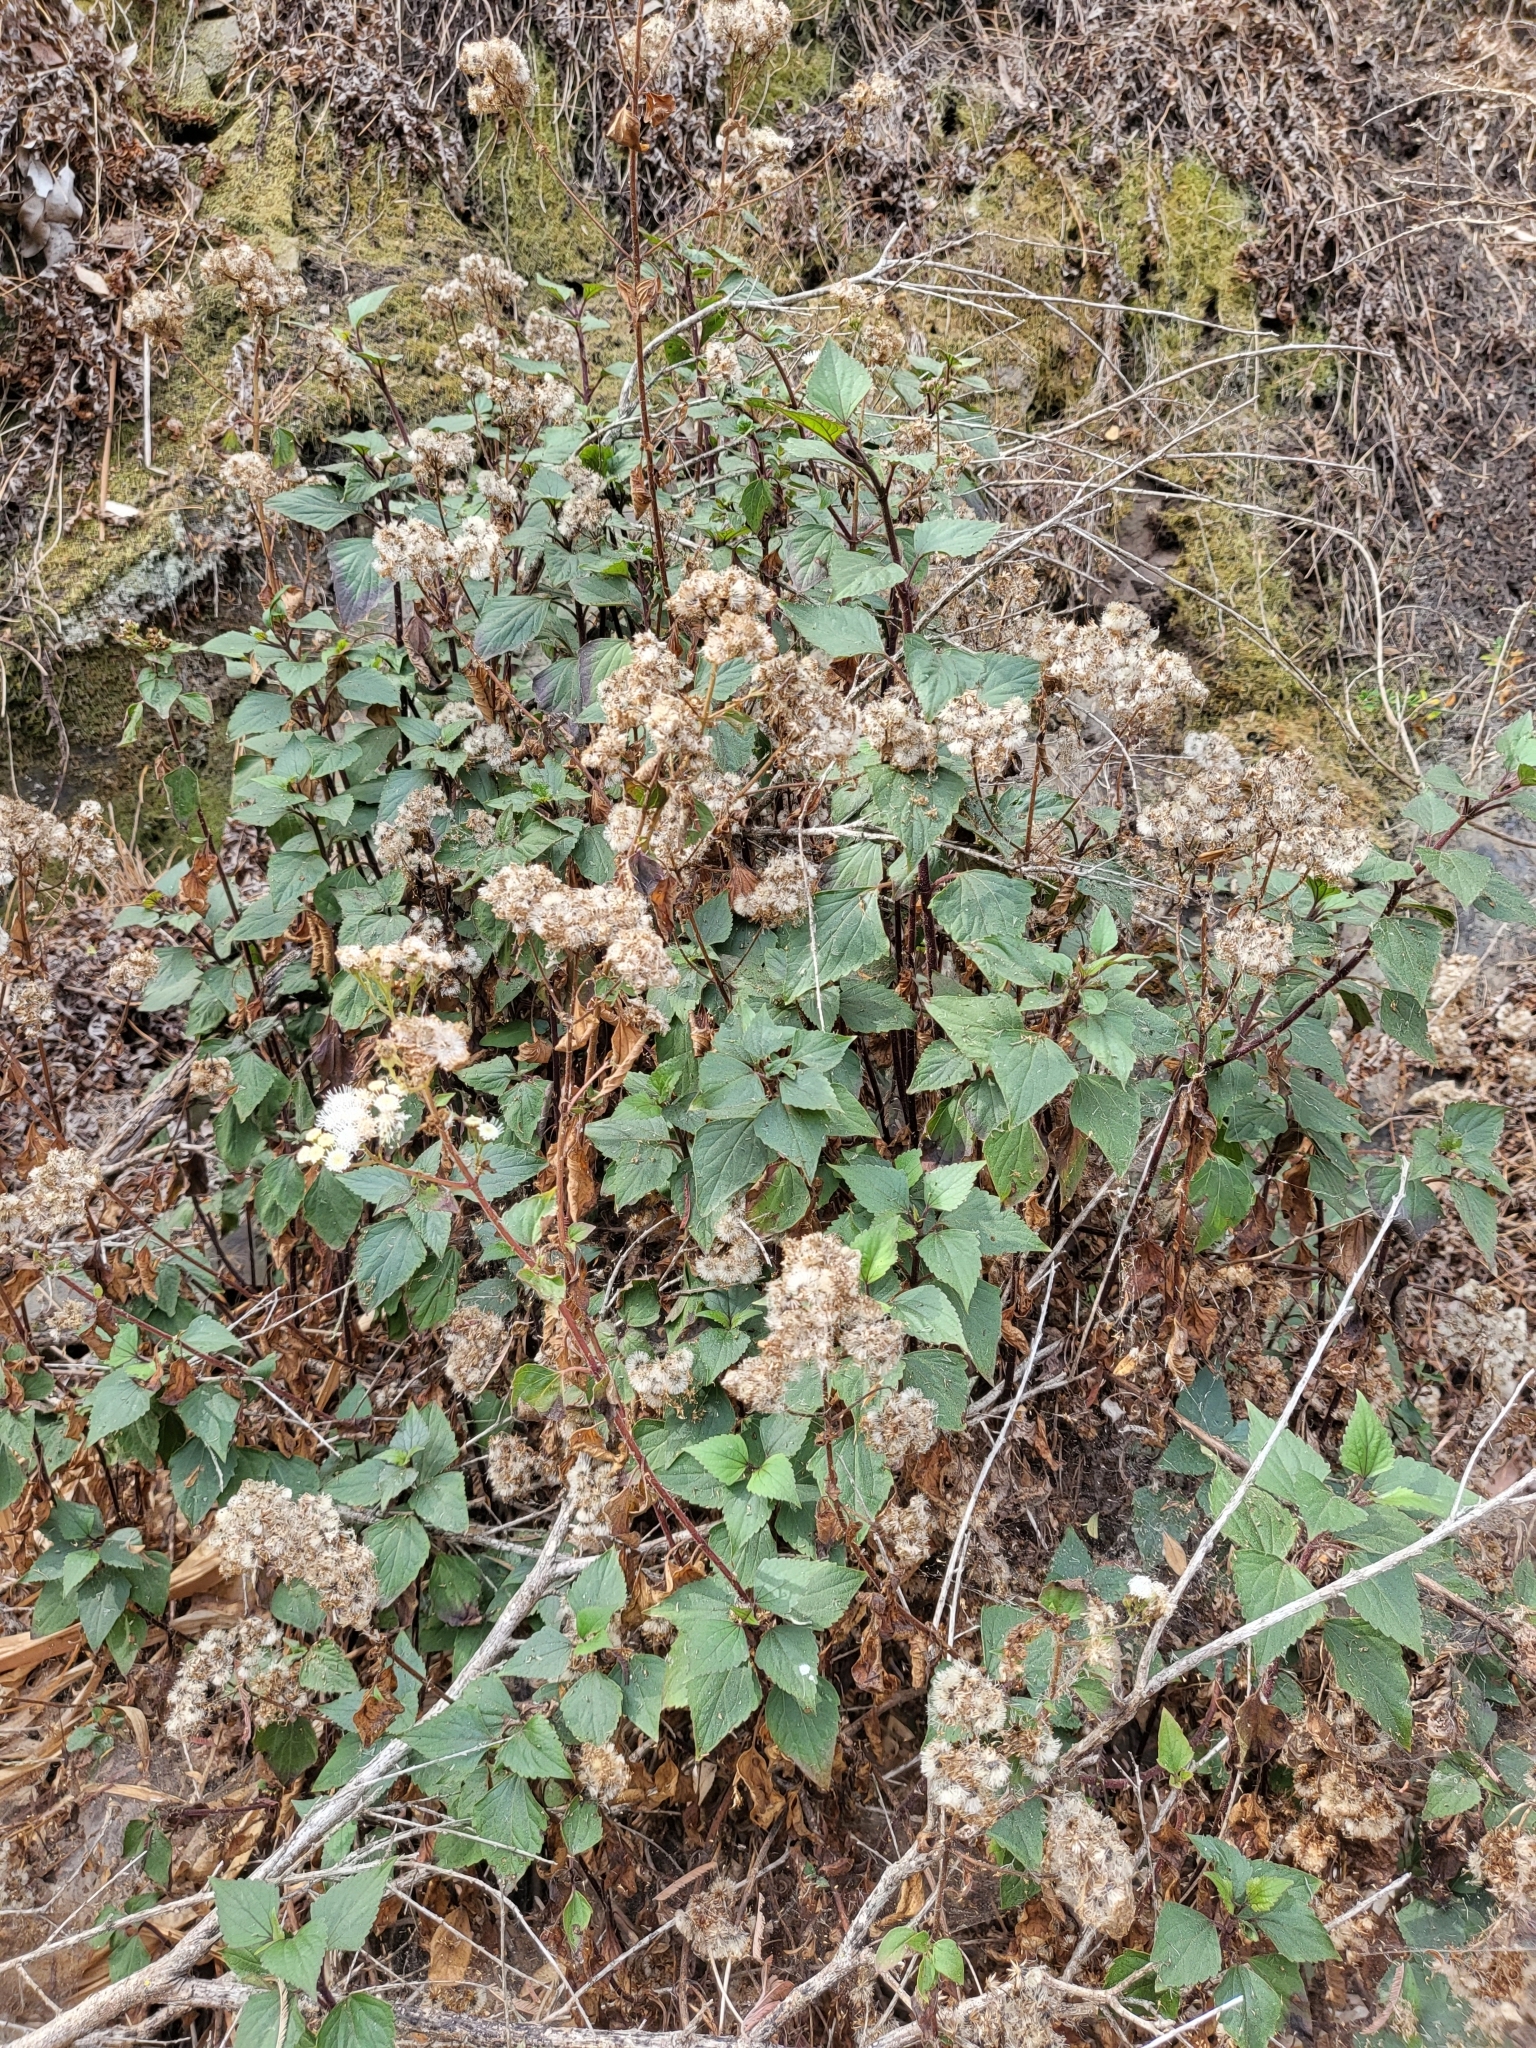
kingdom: Plantae
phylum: Tracheophyta
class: Magnoliopsida
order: Asterales
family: Asteraceae
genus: Ageratina
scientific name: Ageratina adenophora
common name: Sticky snakeroot
